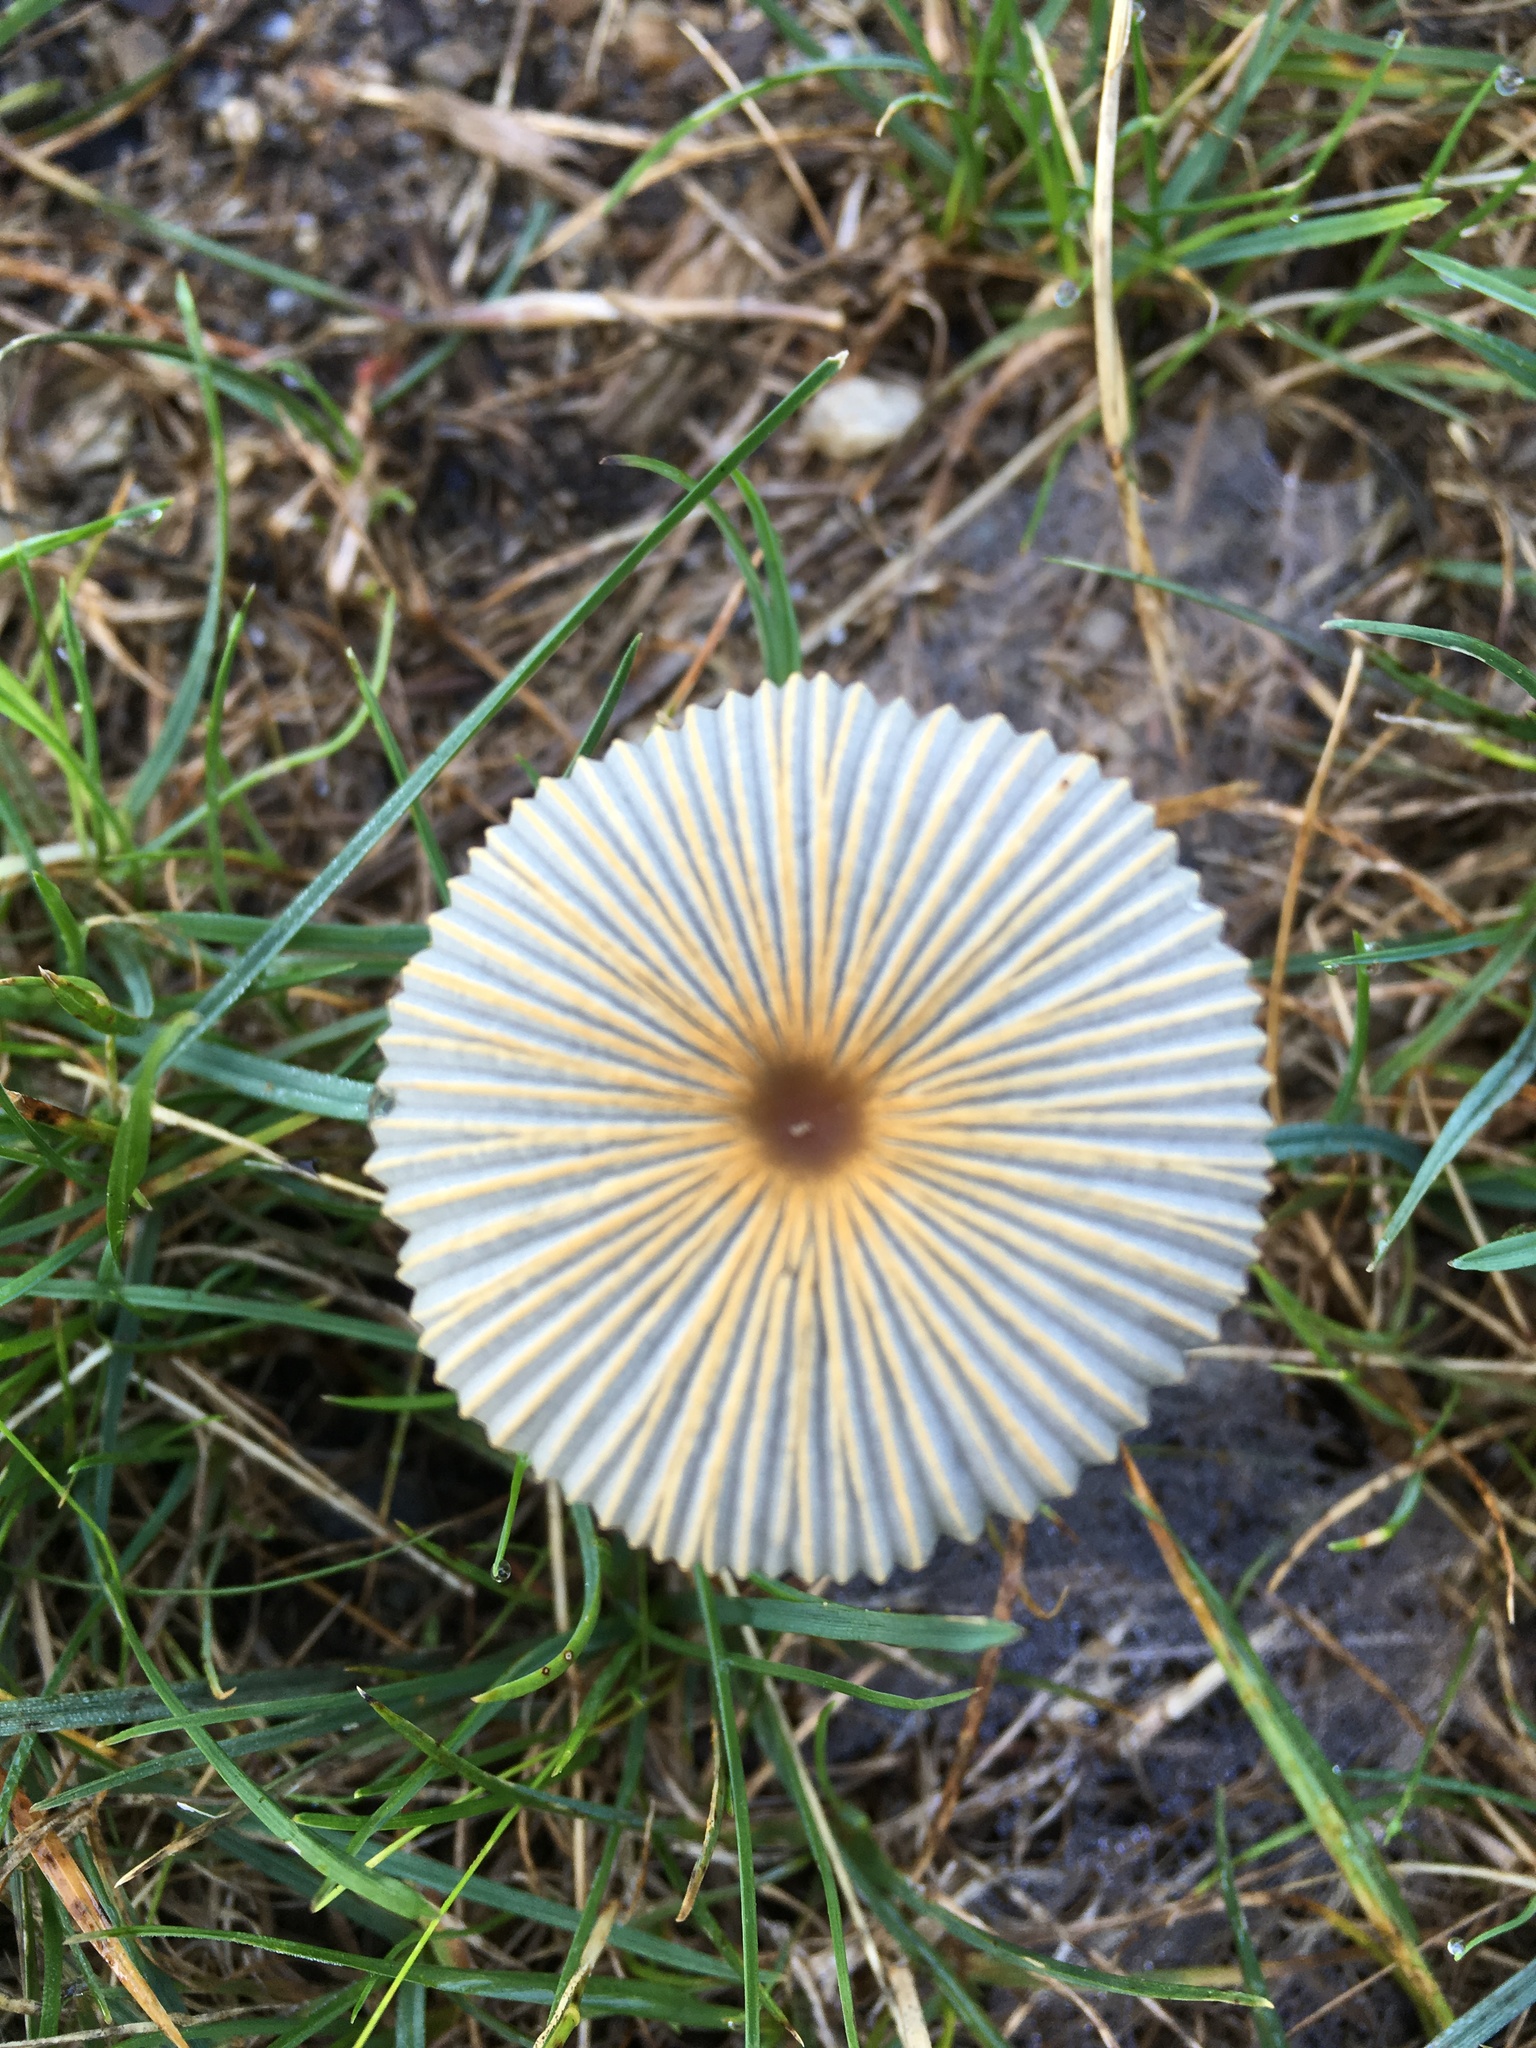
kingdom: Fungi
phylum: Basidiomycota
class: Agaricomycetes
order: Agaricales
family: Psathyrellaceae
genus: Parasola
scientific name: Parasola plicatilis
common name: Pleated inkcap
